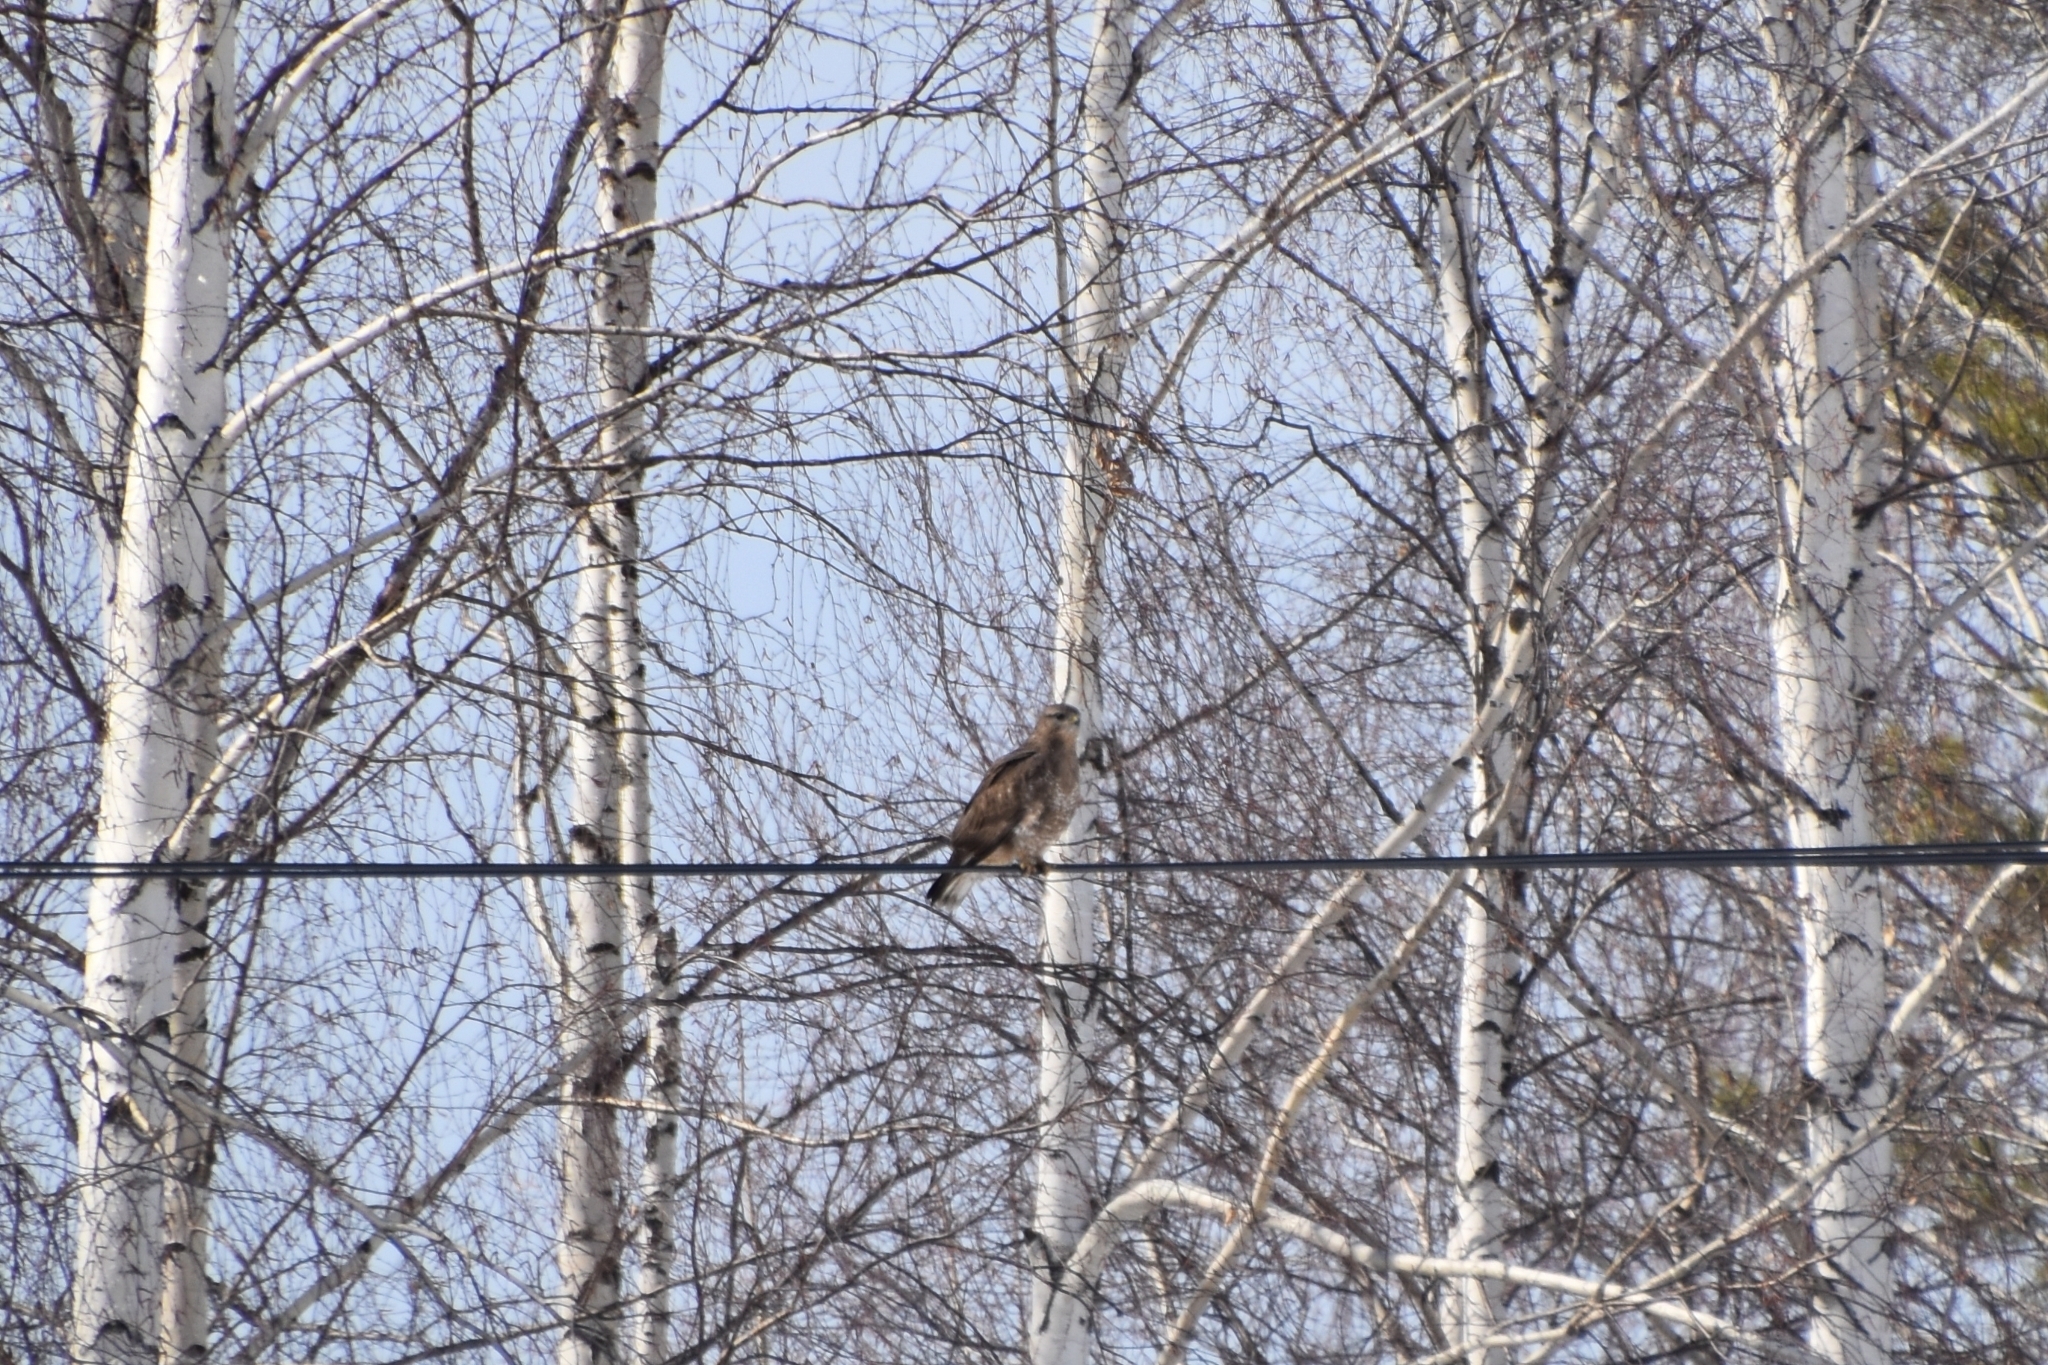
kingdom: Animalia
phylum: Chordata
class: Aves
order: Accipitriformes
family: Accipitridae
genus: Buteo
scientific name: Buteo buteo
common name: Common buzzard
